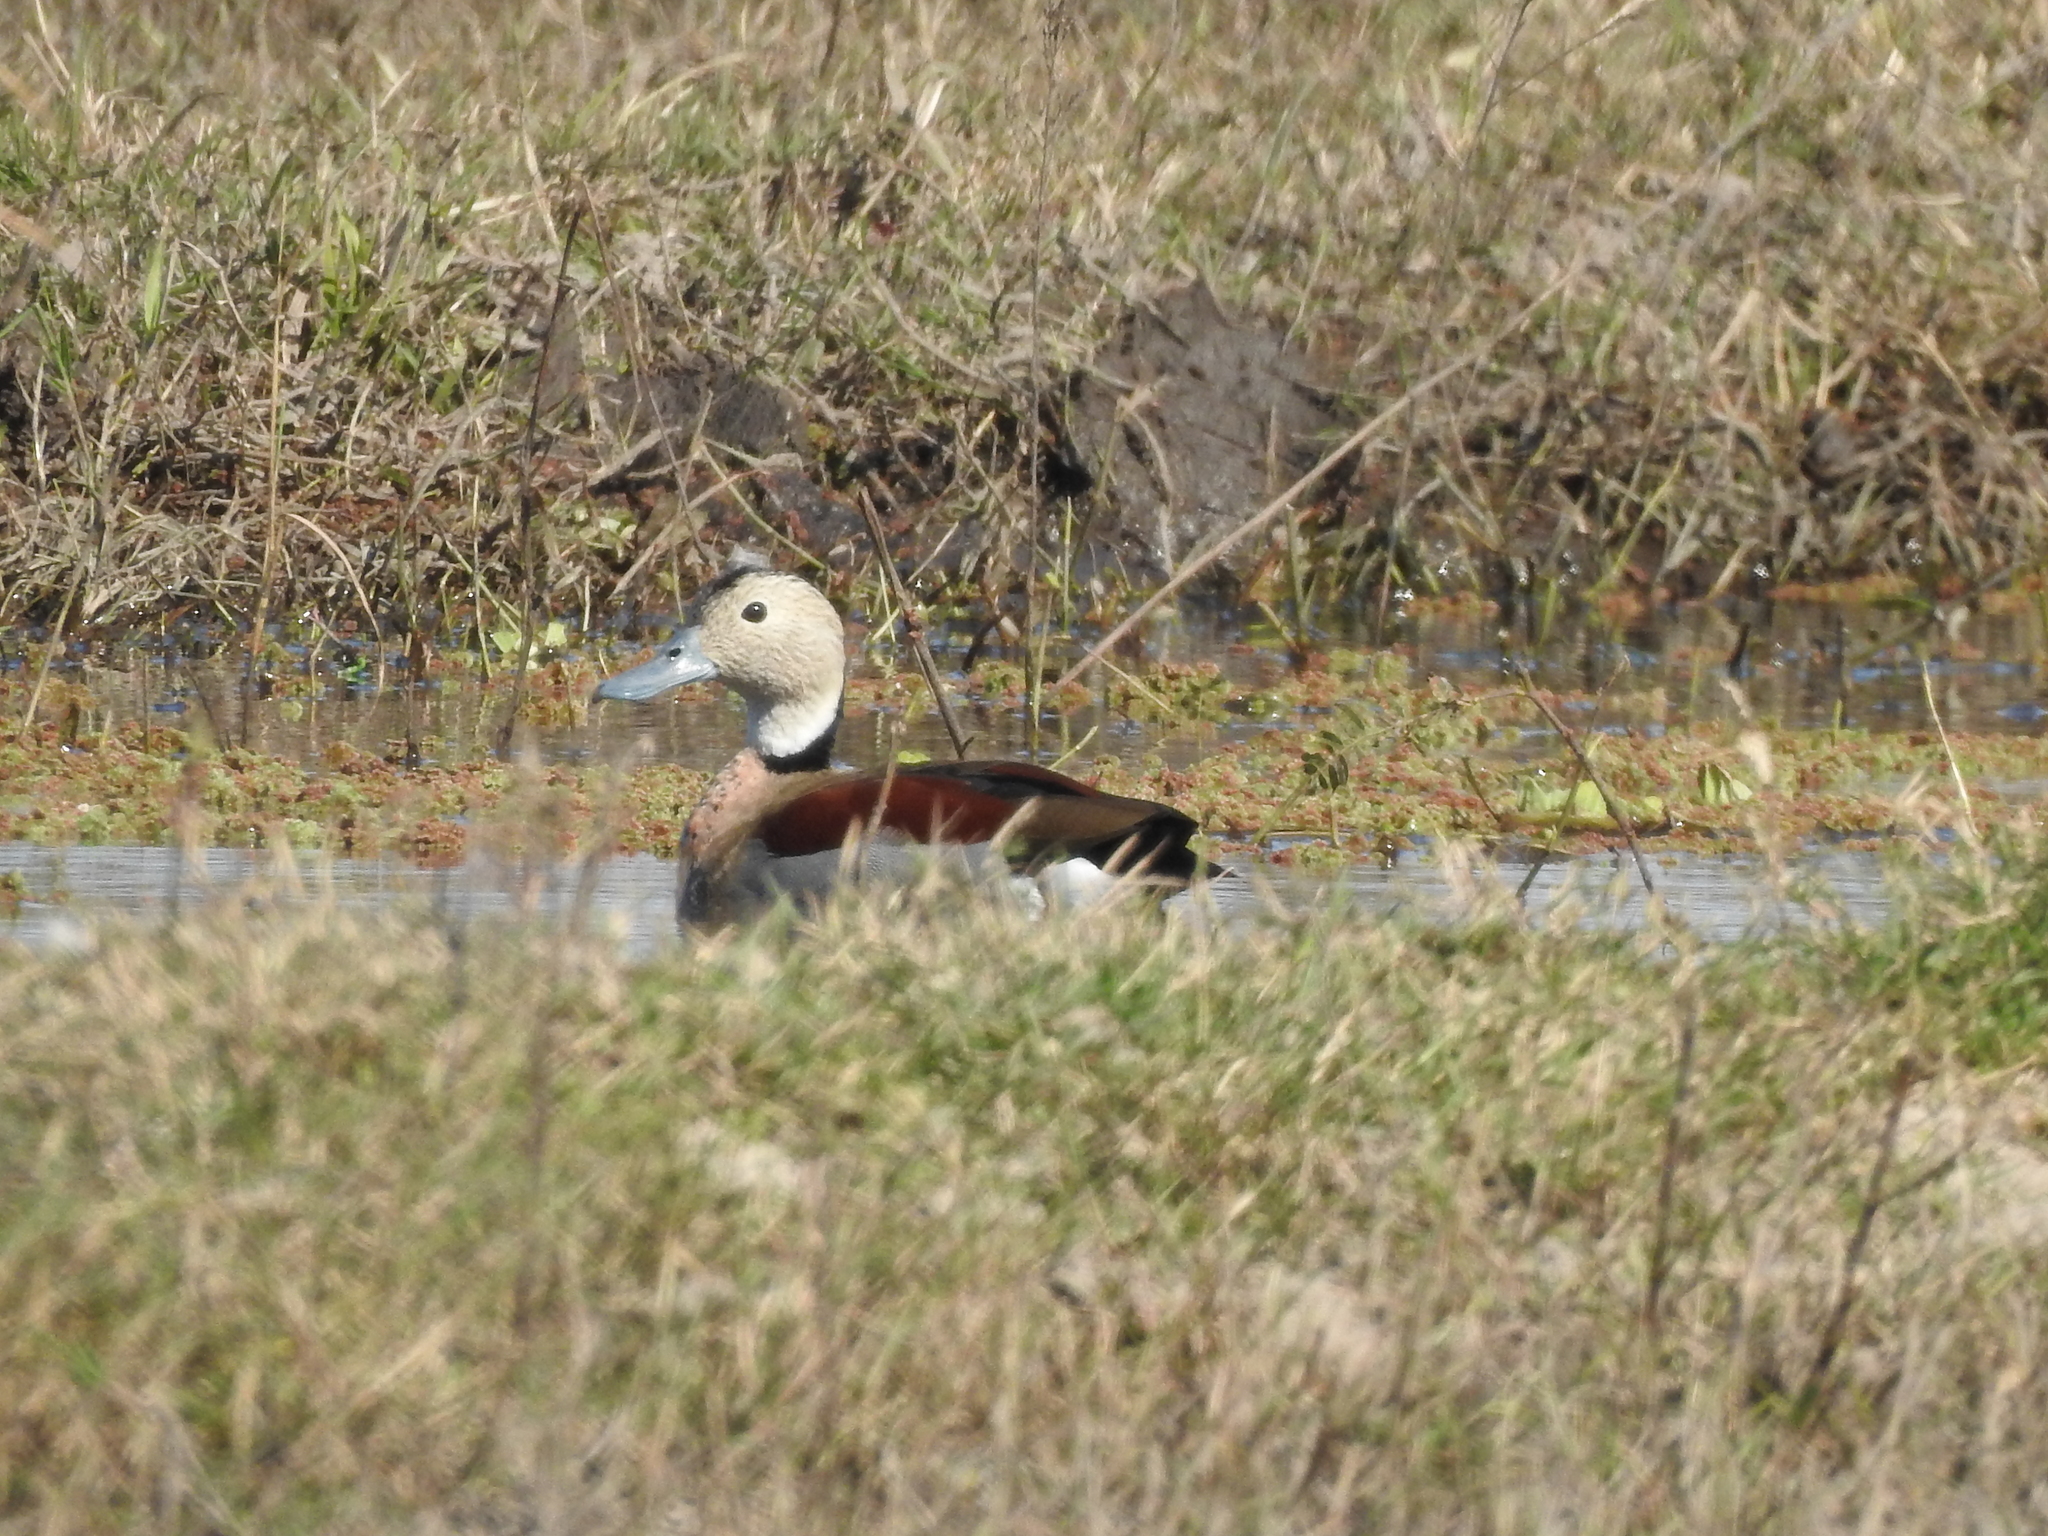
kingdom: Animalia
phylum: Chordata
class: Aves
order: Anseriformes
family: Anatidae
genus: Callonetta
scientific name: Callonetta leucophrys
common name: Ringed teal
